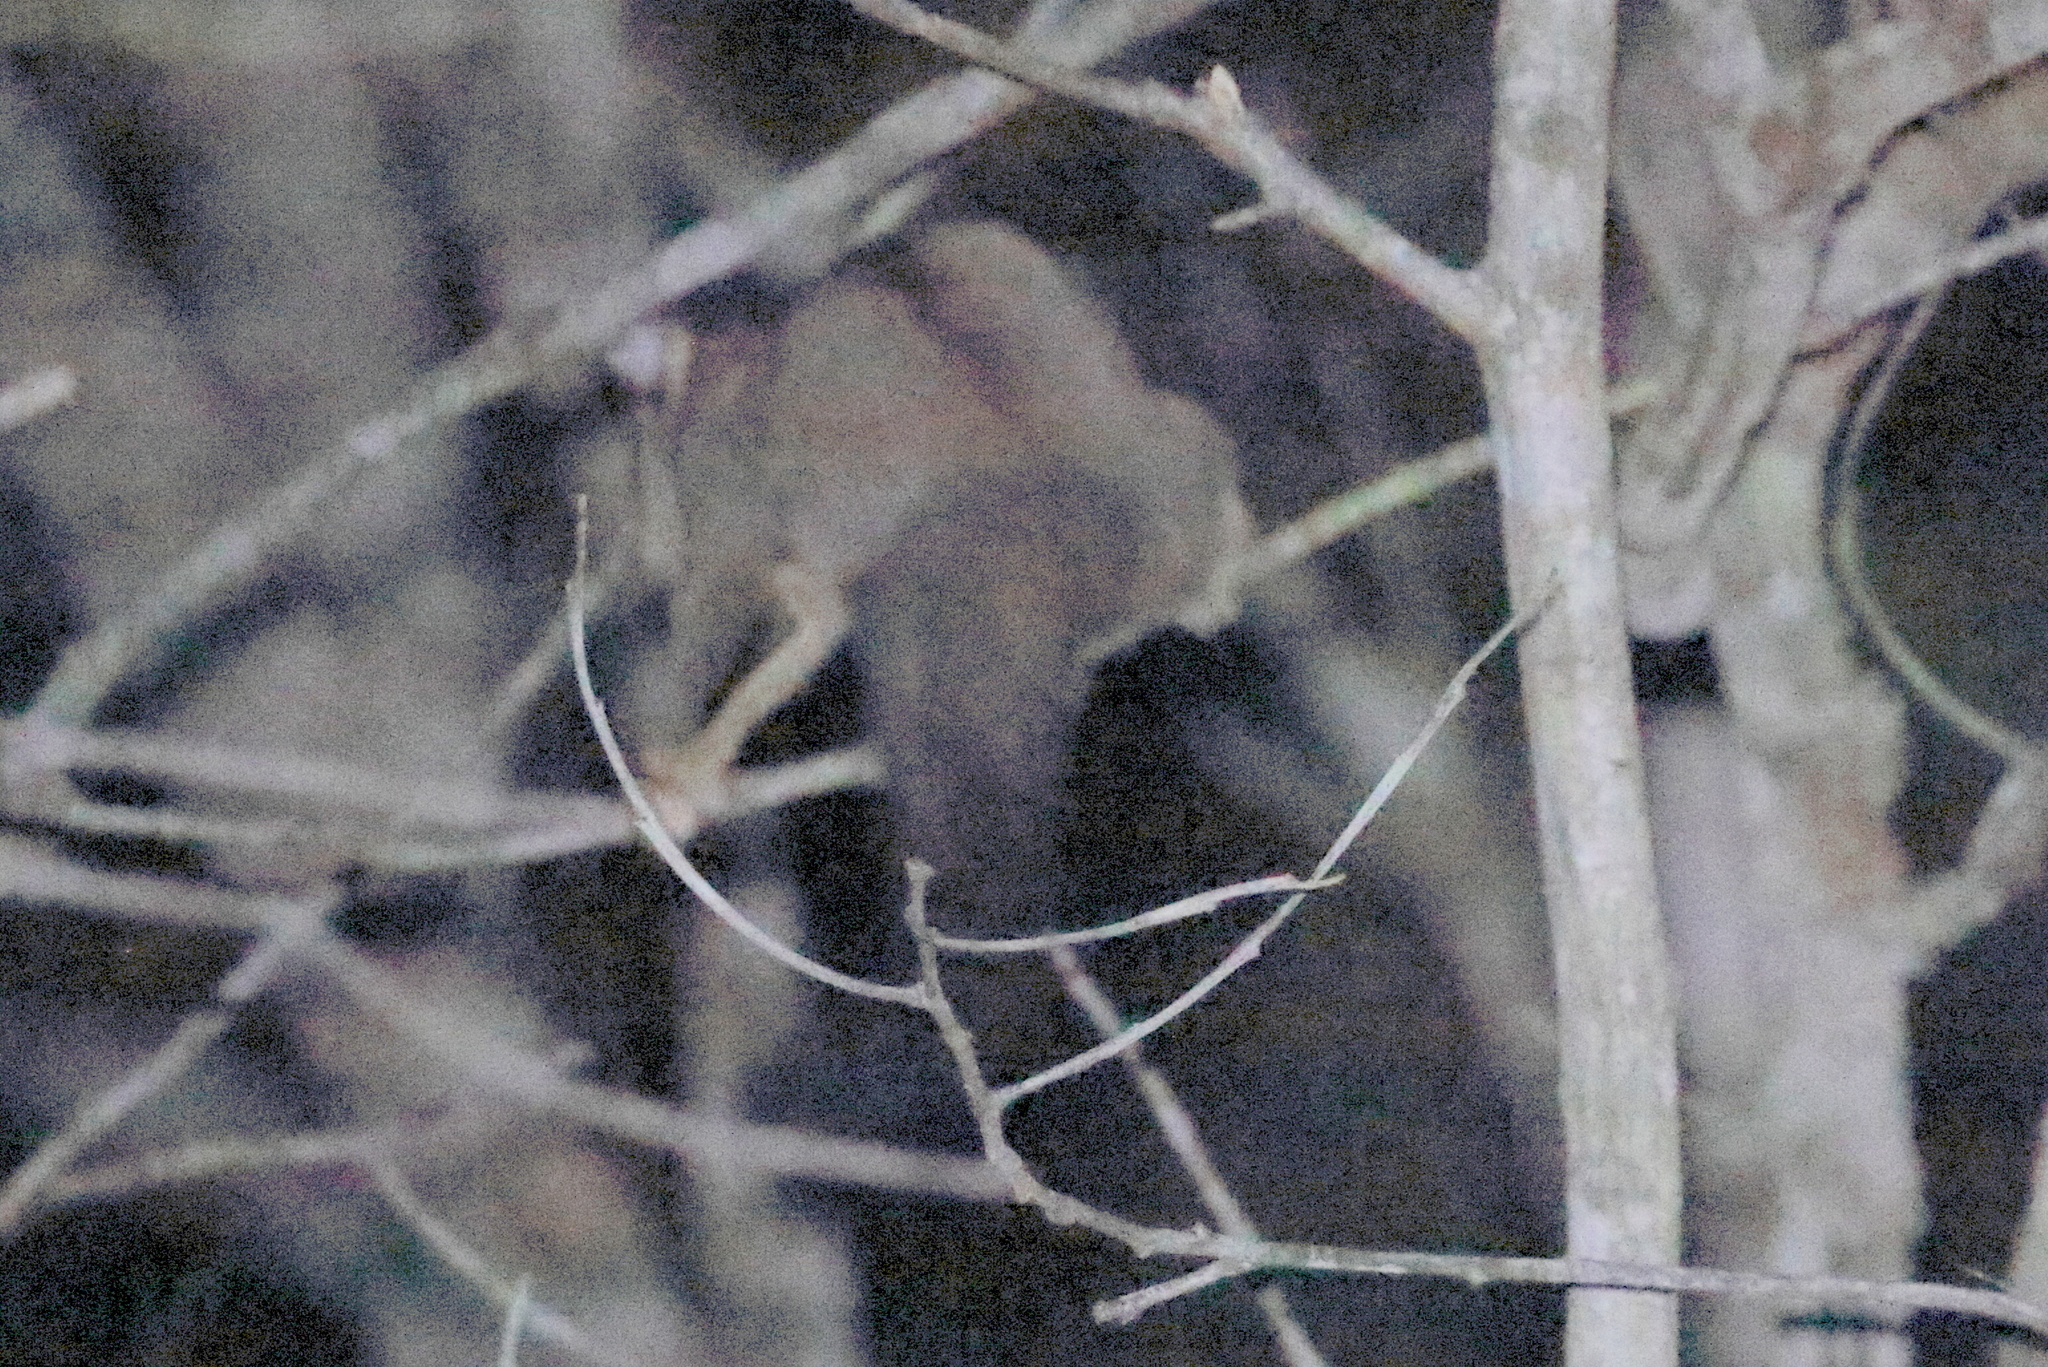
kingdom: Animalia
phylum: Chordata
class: Mammalia
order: Diprotodontia
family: Petauridae
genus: Petaurus
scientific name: Petaurus breviceps
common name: Sugar glider
